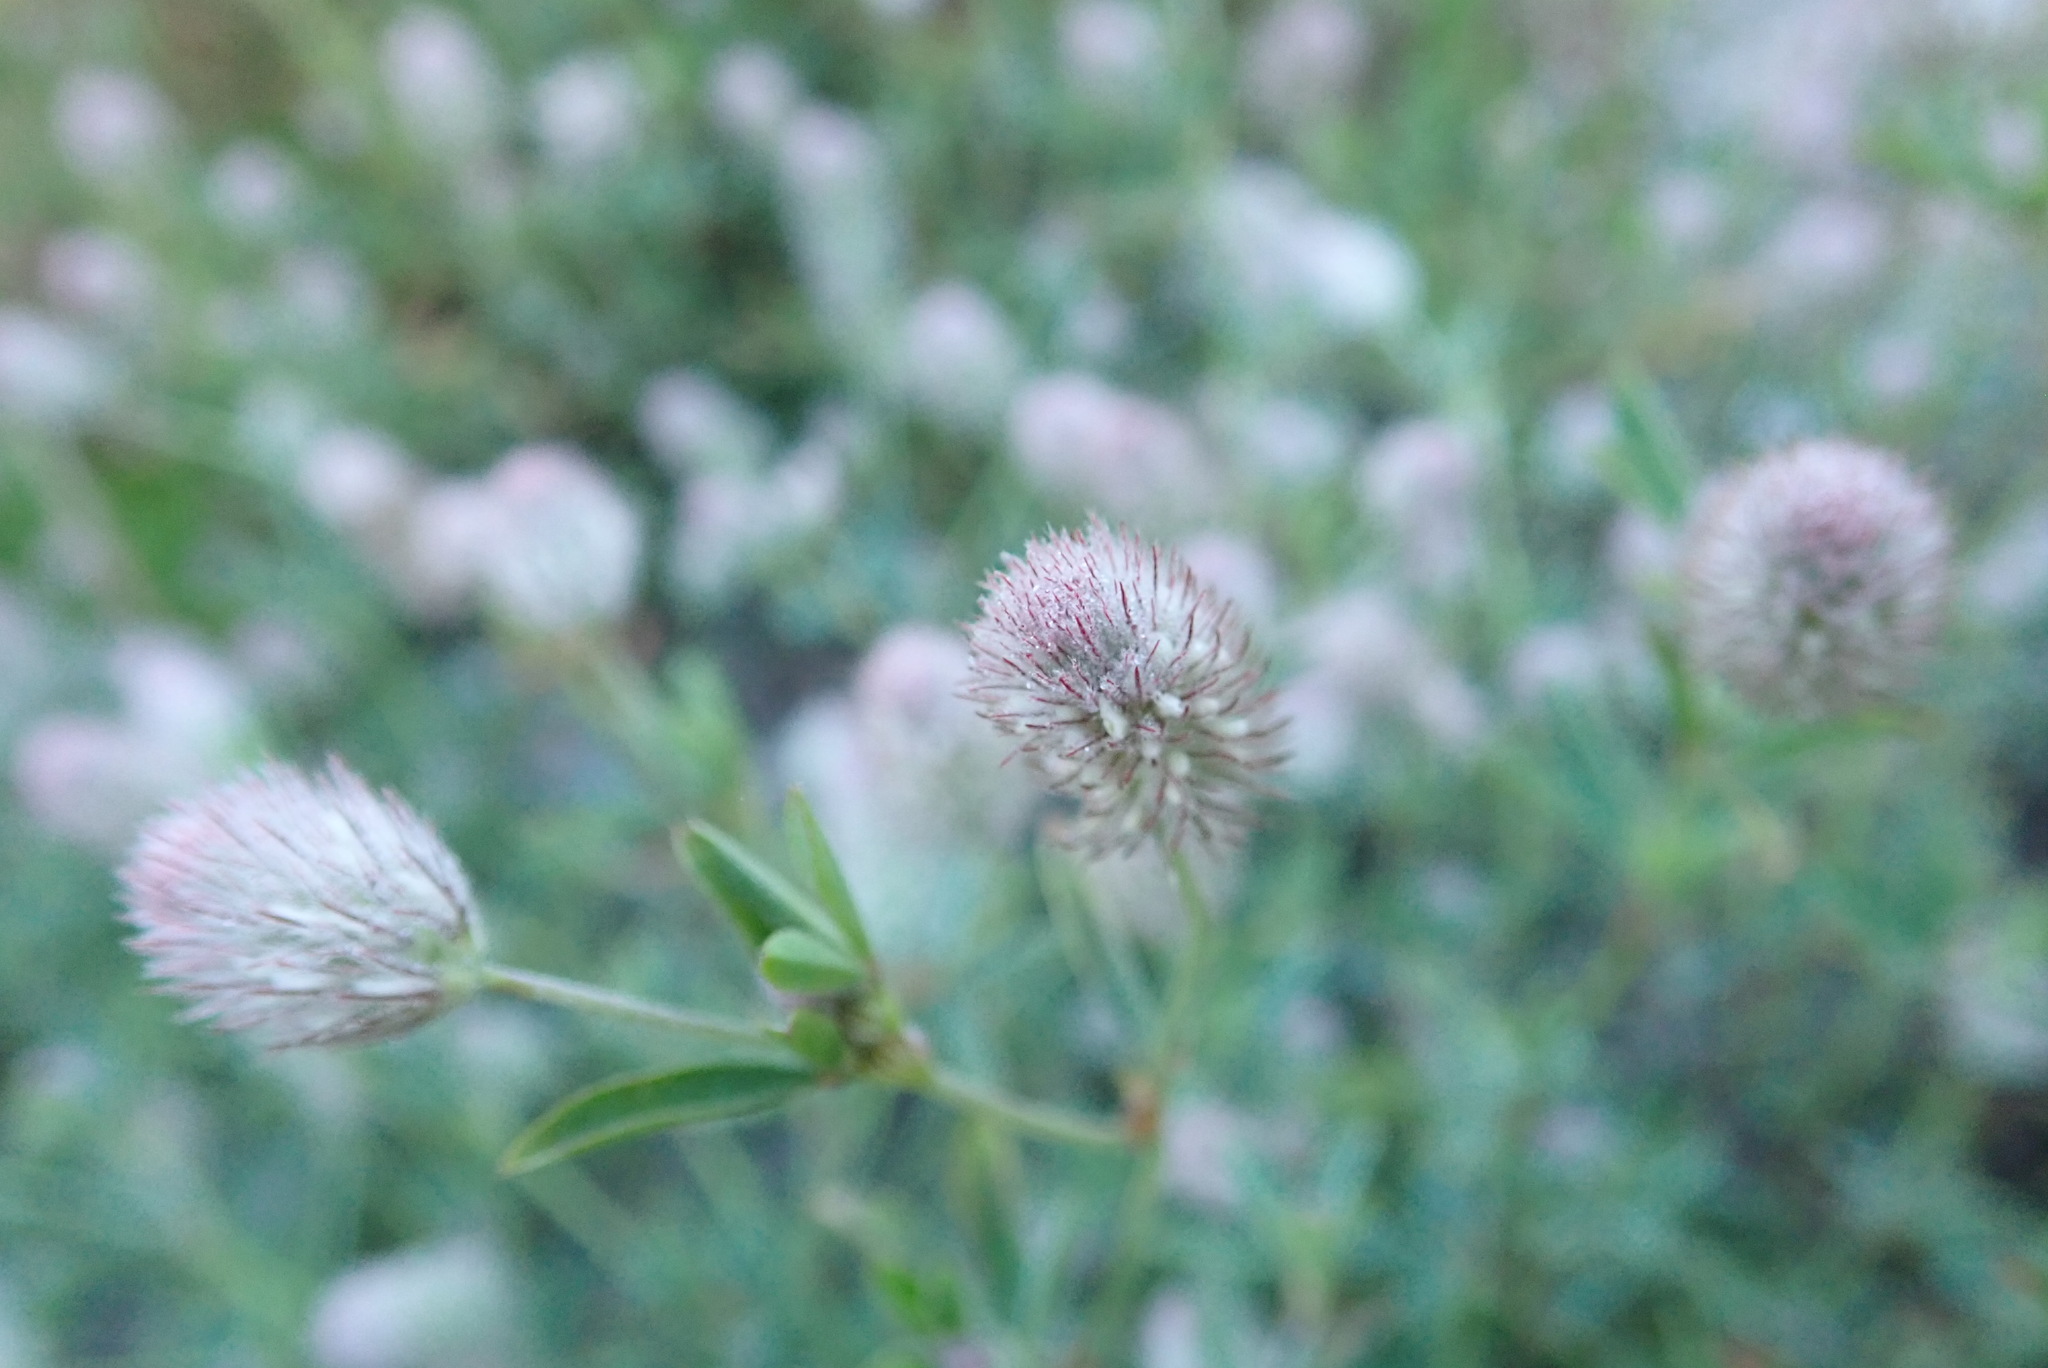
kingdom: Plantae
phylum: Tracheophyta
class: Magnoliopsida
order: Fabales
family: Fabaceae
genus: Trifolium
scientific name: Trifolium arvense
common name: Hare's-foot clover
